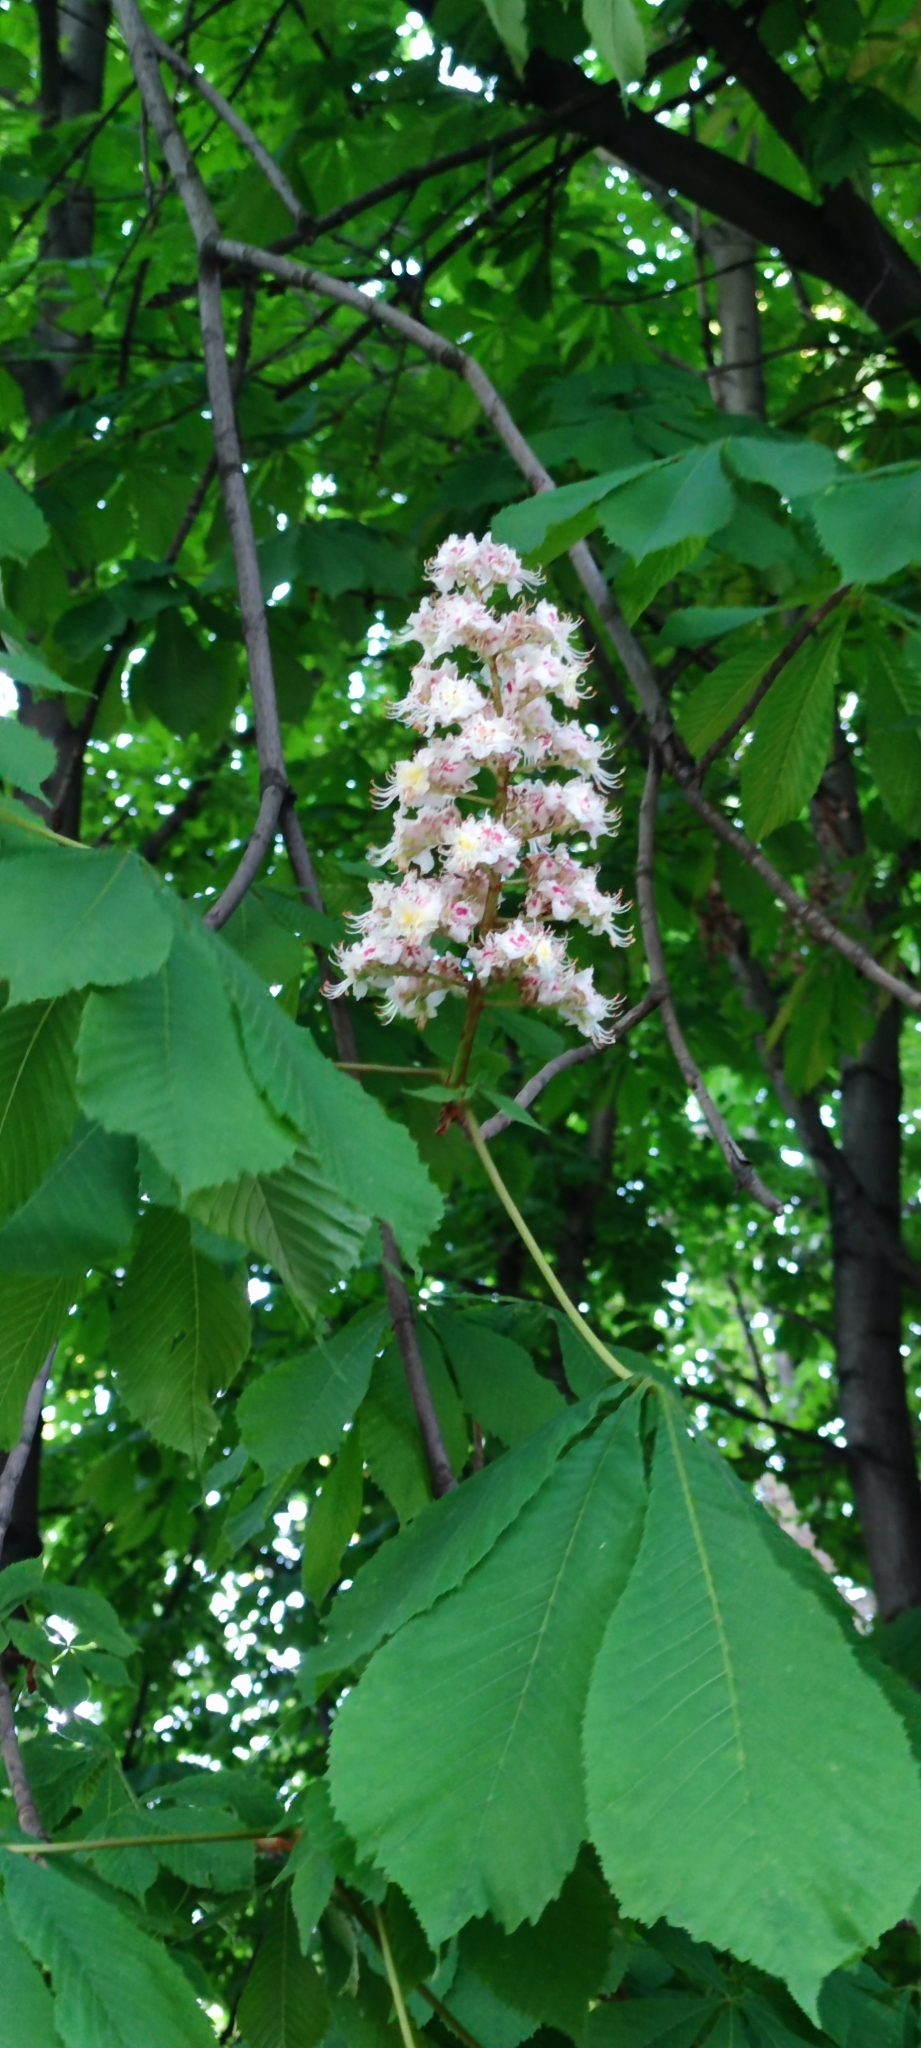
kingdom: Plantae
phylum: Tracheophyta
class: Magnoliopsida
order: Sapindales
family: Sapindaceae
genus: Aesculus
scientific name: Aesculus hippocastanum
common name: Horse-chestnut
